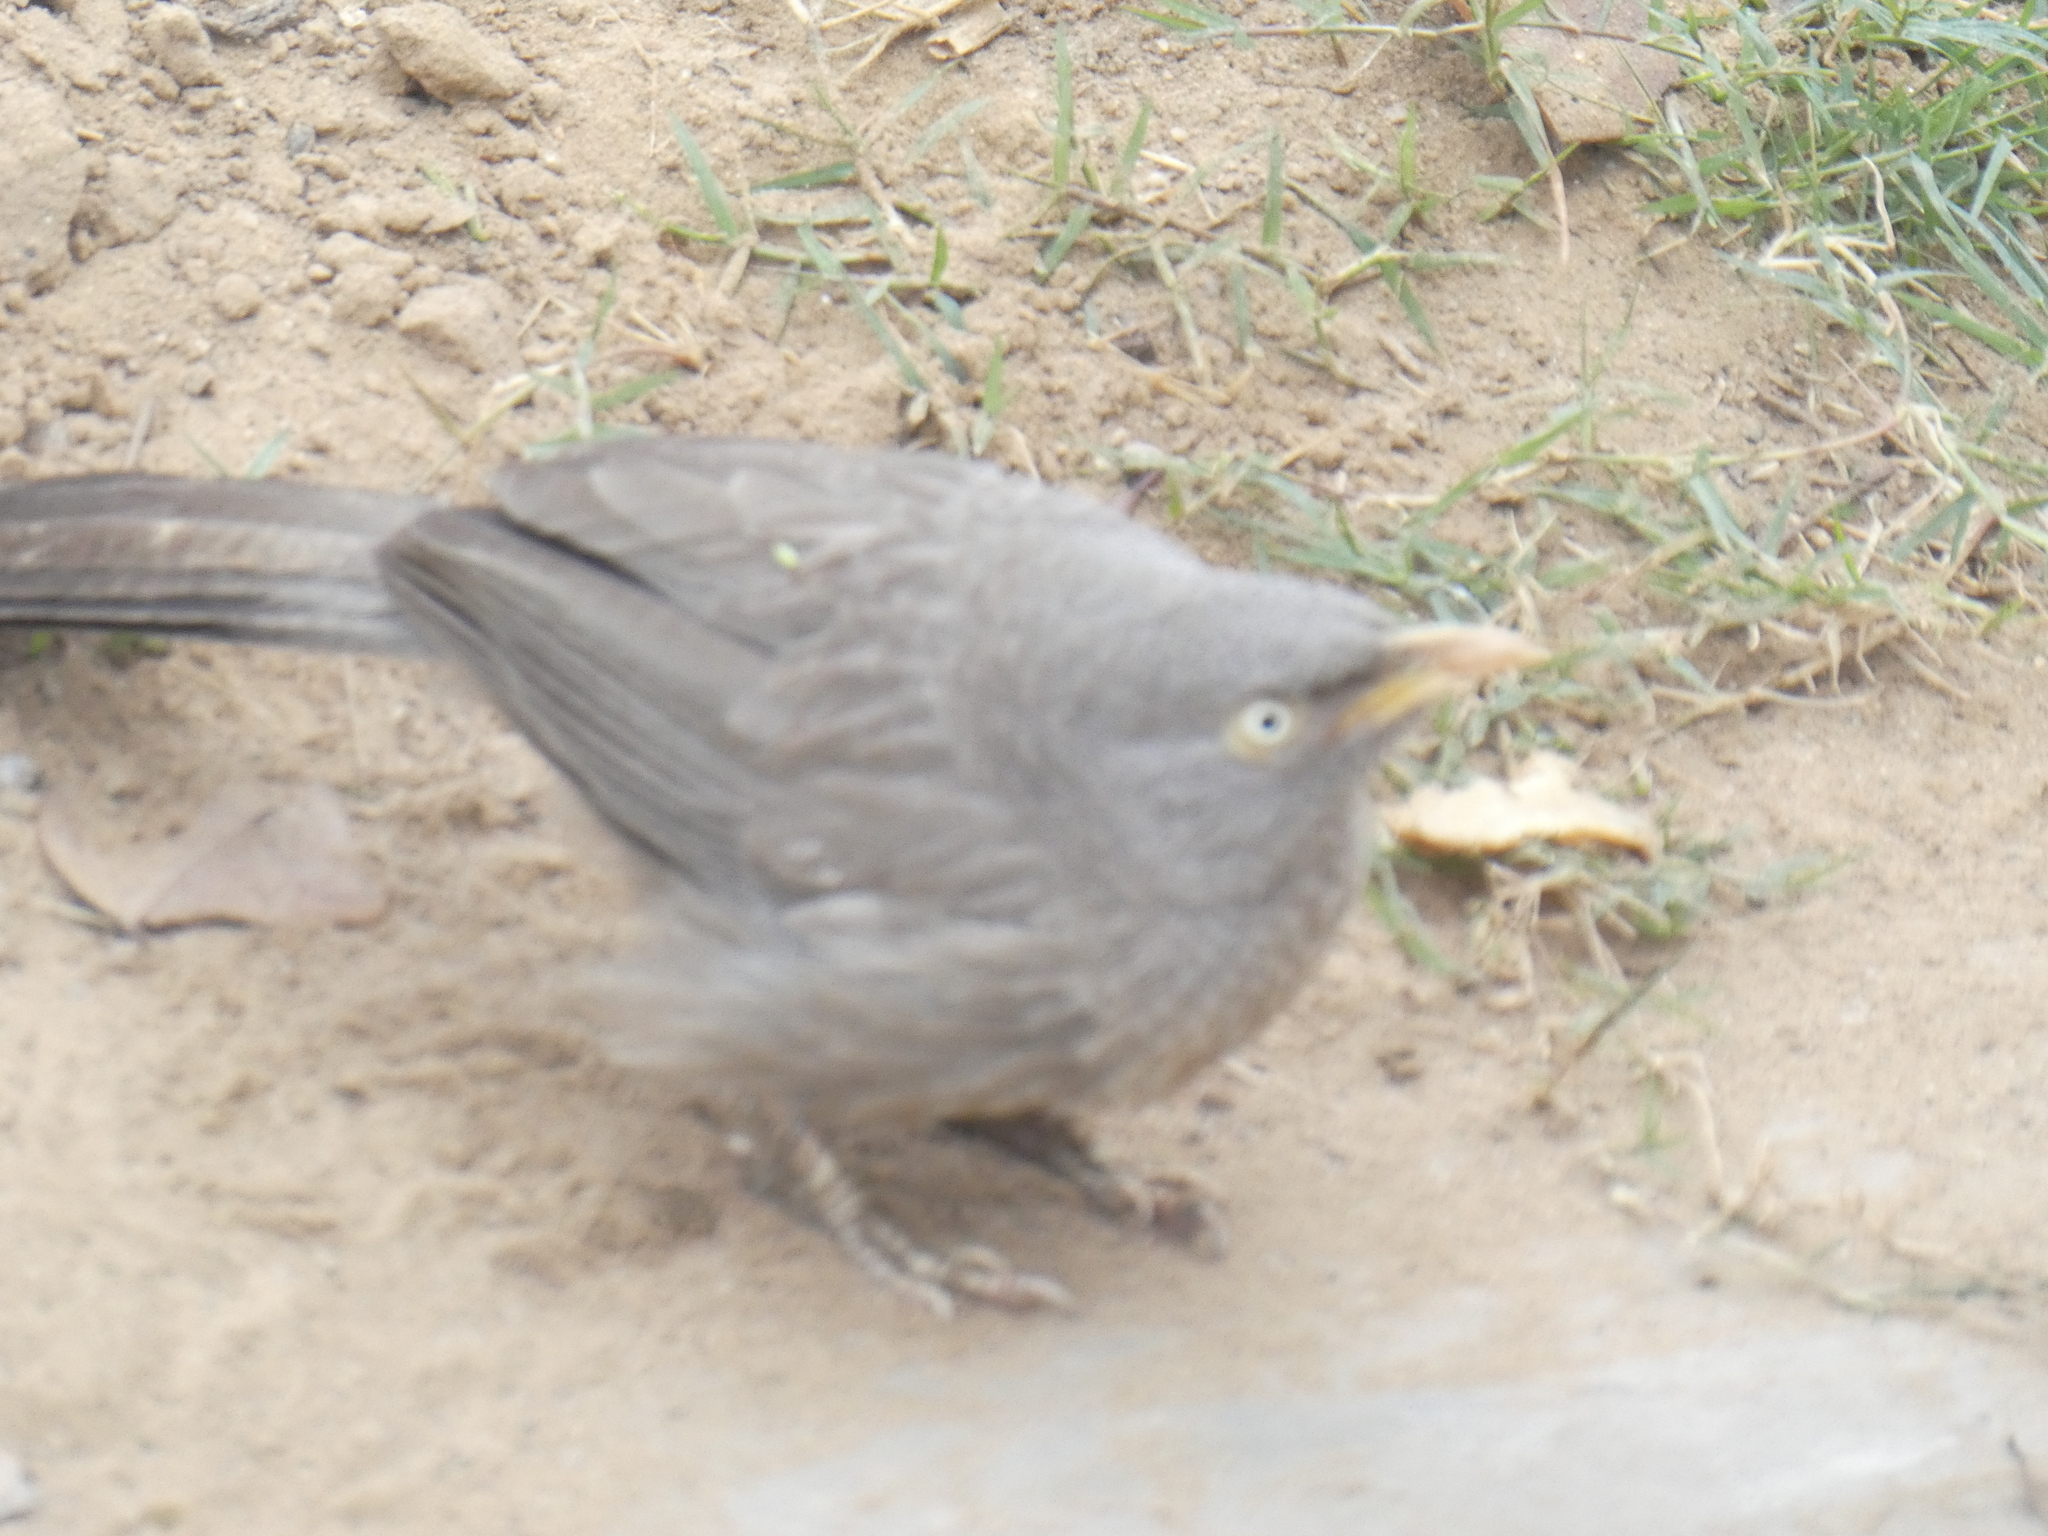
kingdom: Animalia
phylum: Chordata
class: Aves
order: Passeriformes
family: Leiothrichidae
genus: Turdoides
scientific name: Turdoides striata
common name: Jungle babbler
